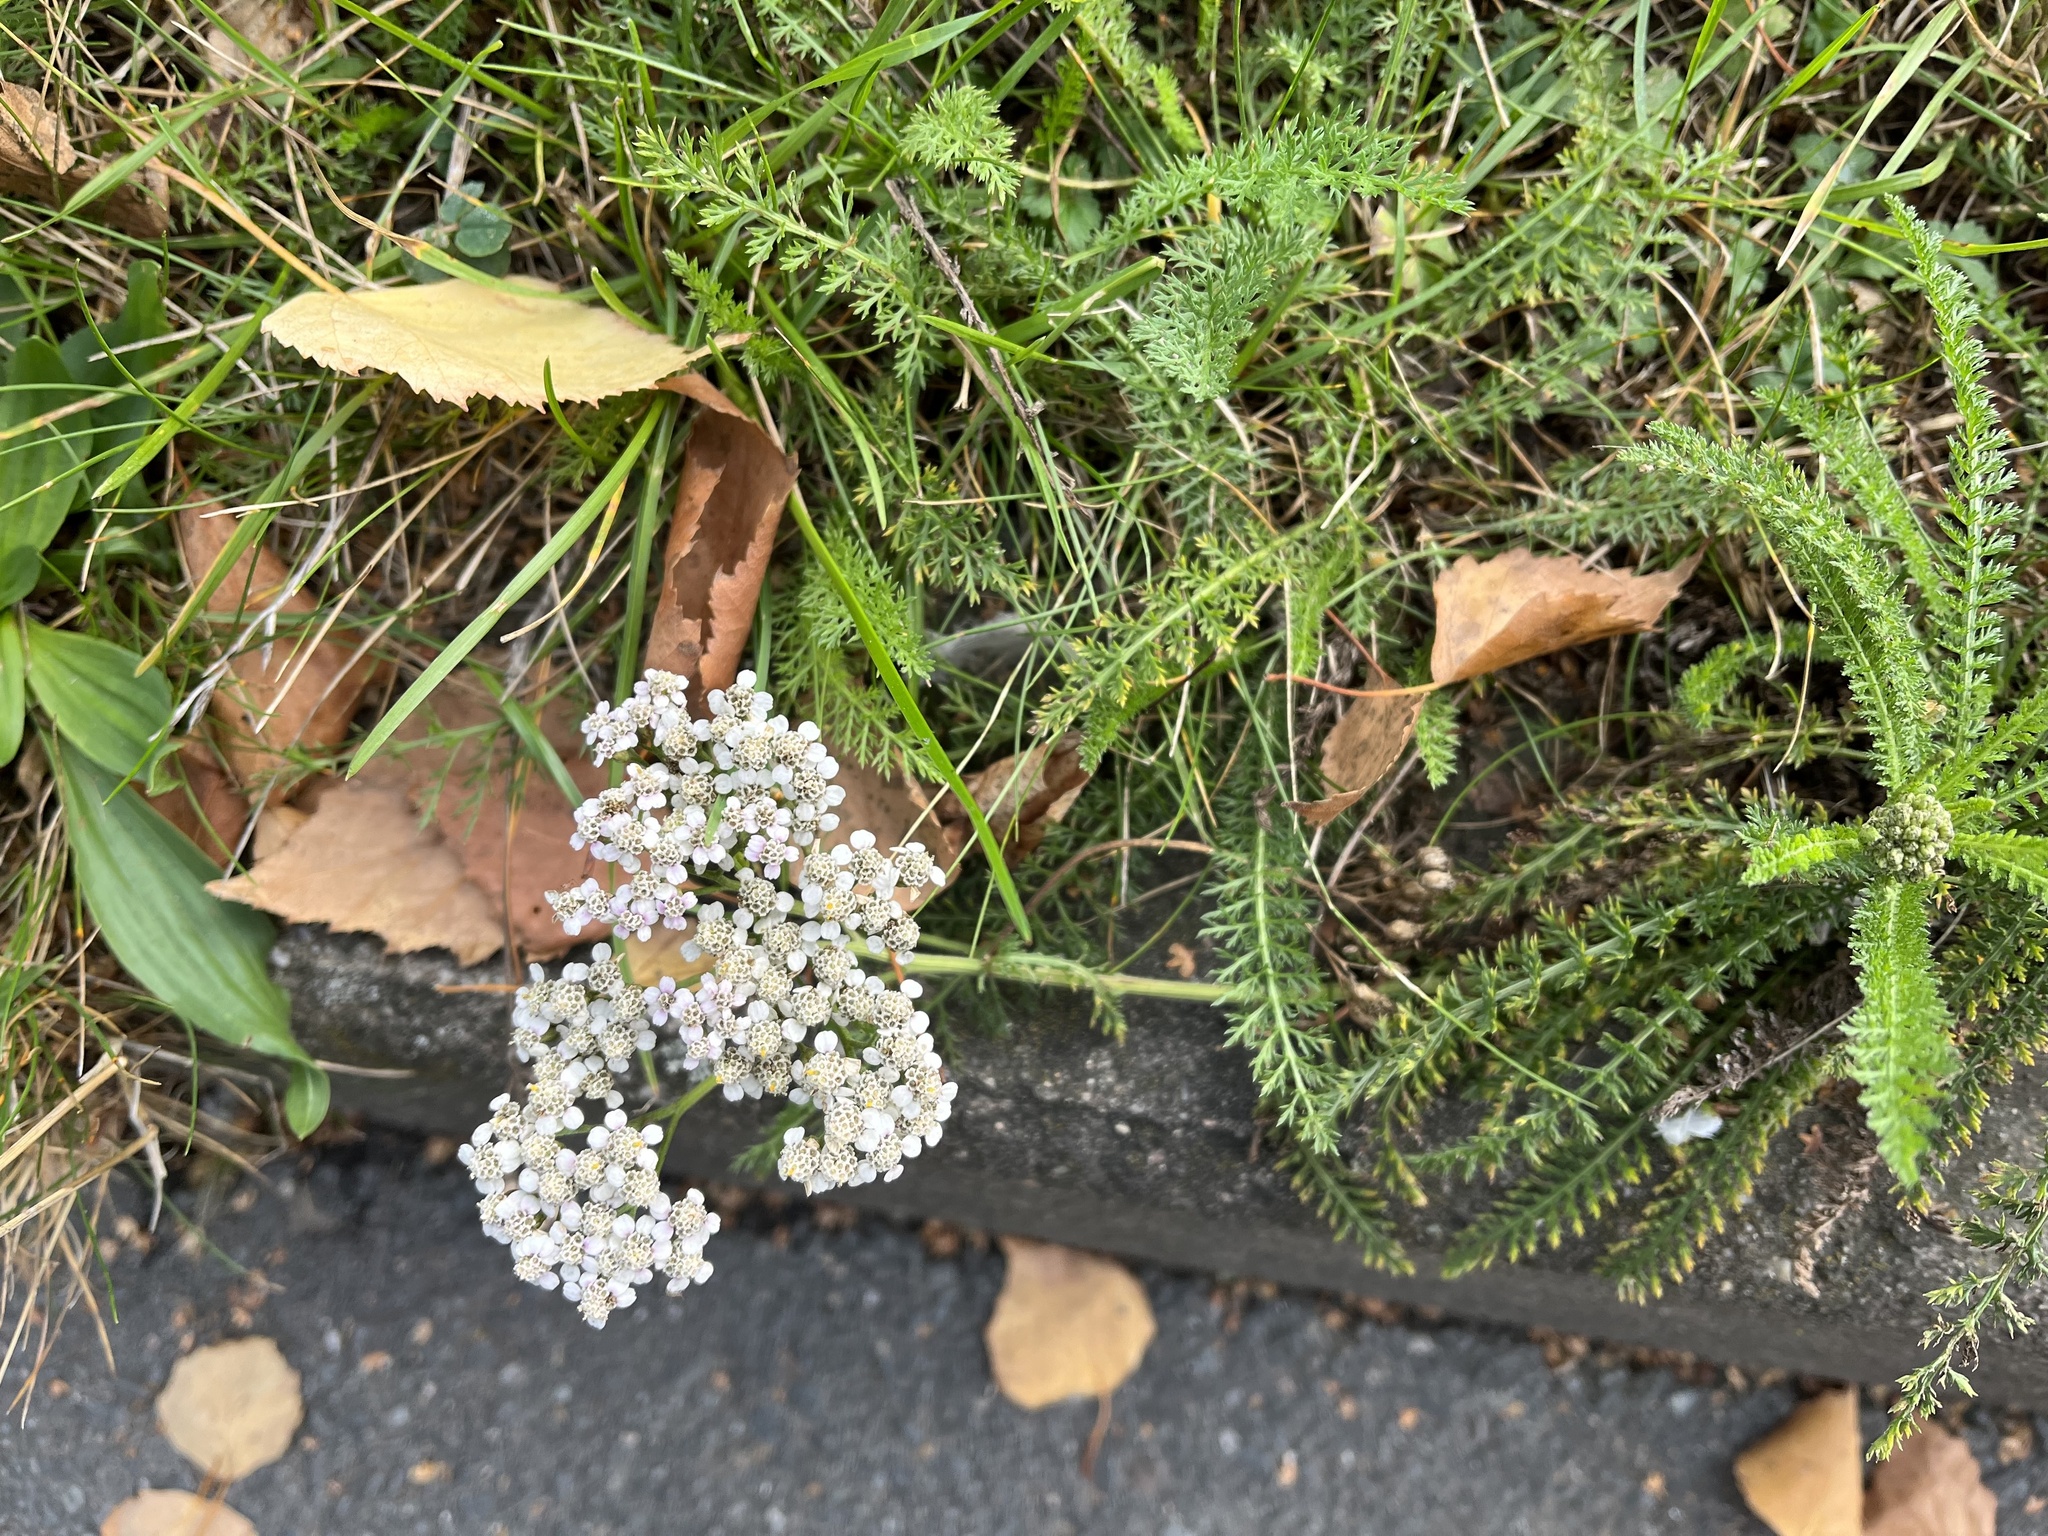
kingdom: Plantae
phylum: Tracheophyta
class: Magnoliopsida
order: Asterales
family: Asteraceae
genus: Achillea
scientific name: Achillea millefolium
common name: Yarrow
